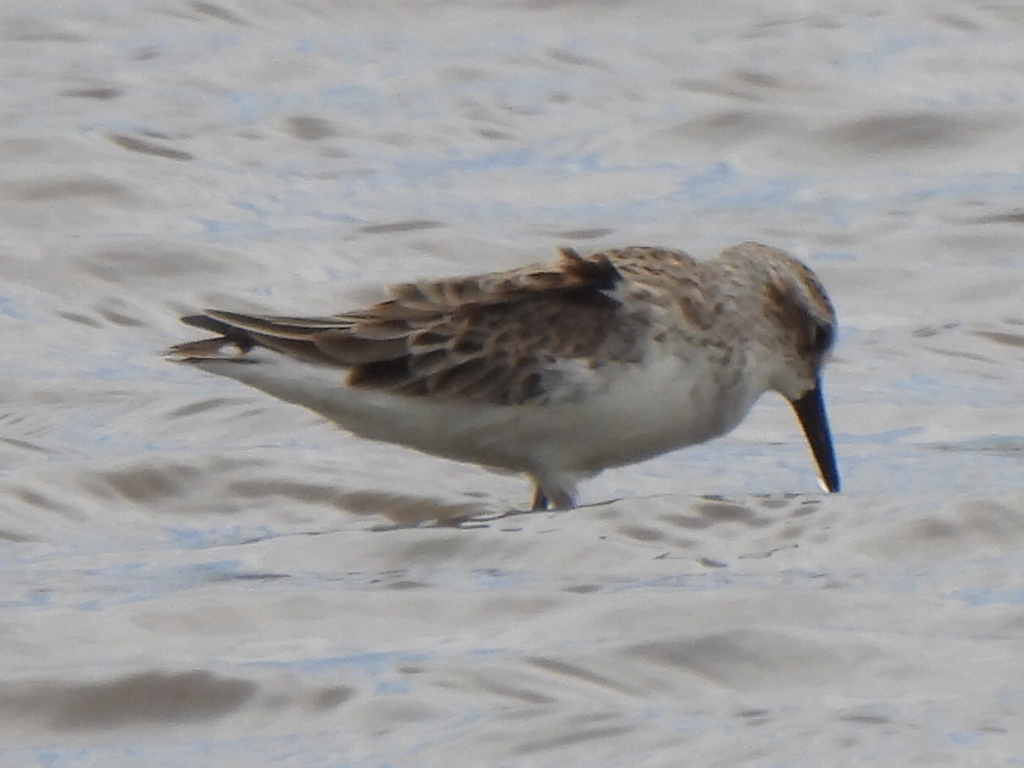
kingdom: Animalia
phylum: Chordata
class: Aves
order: Charadriiformes
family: Scolopacidae
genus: Calidris
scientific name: Calidris mauri
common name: Western sandpiper
